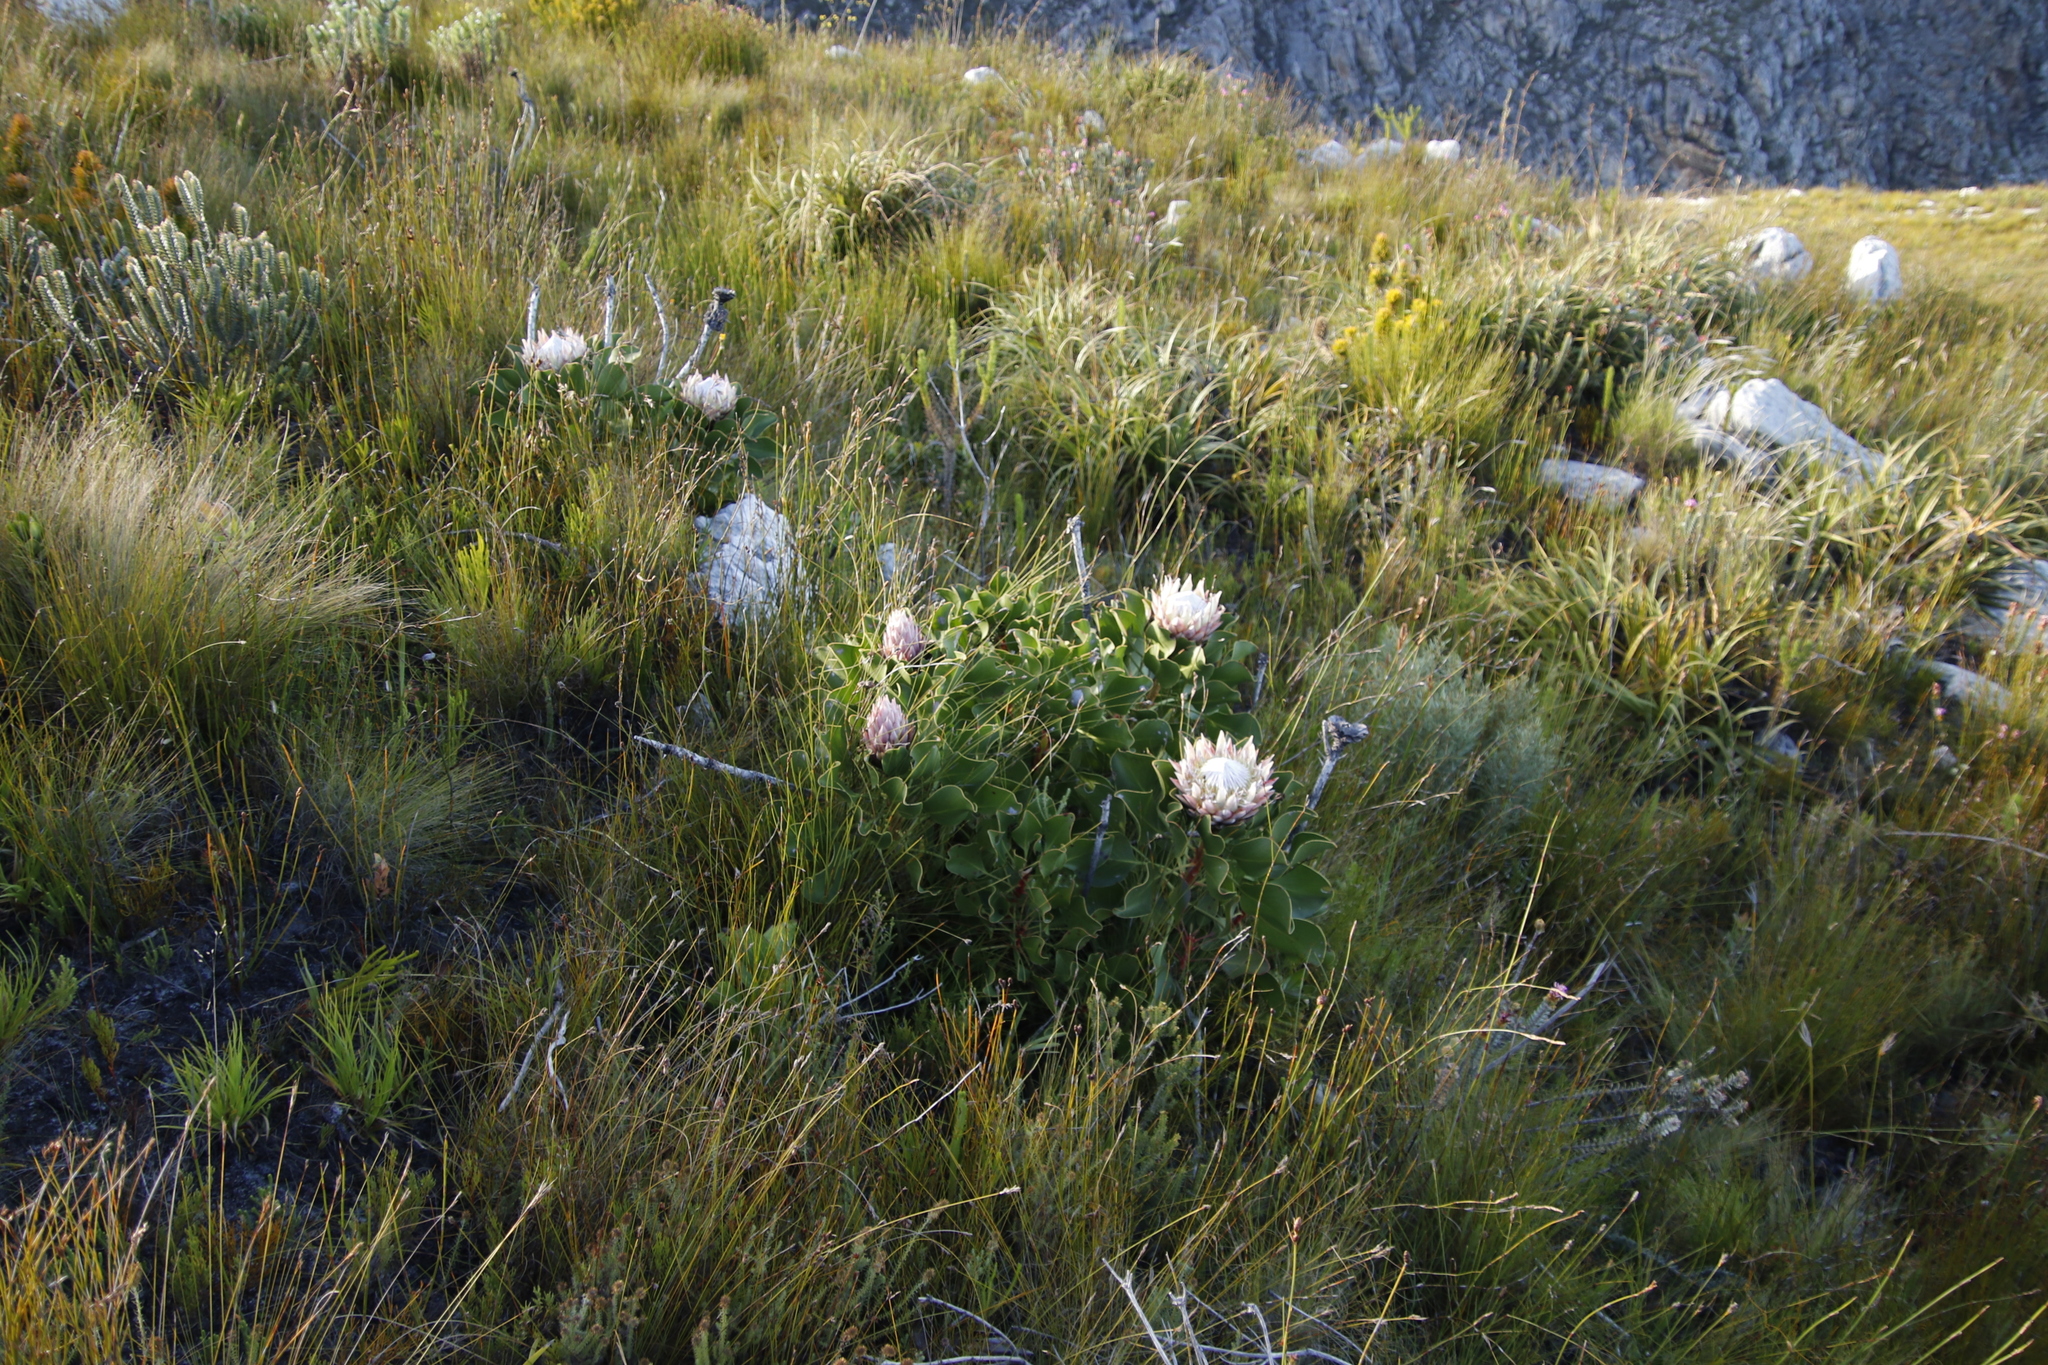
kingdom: Plantae
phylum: Tracheophyta
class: Magnoliopsida
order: Proteales
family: Proteaceae
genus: Protea
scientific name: Protea cynaroides
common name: King protea
